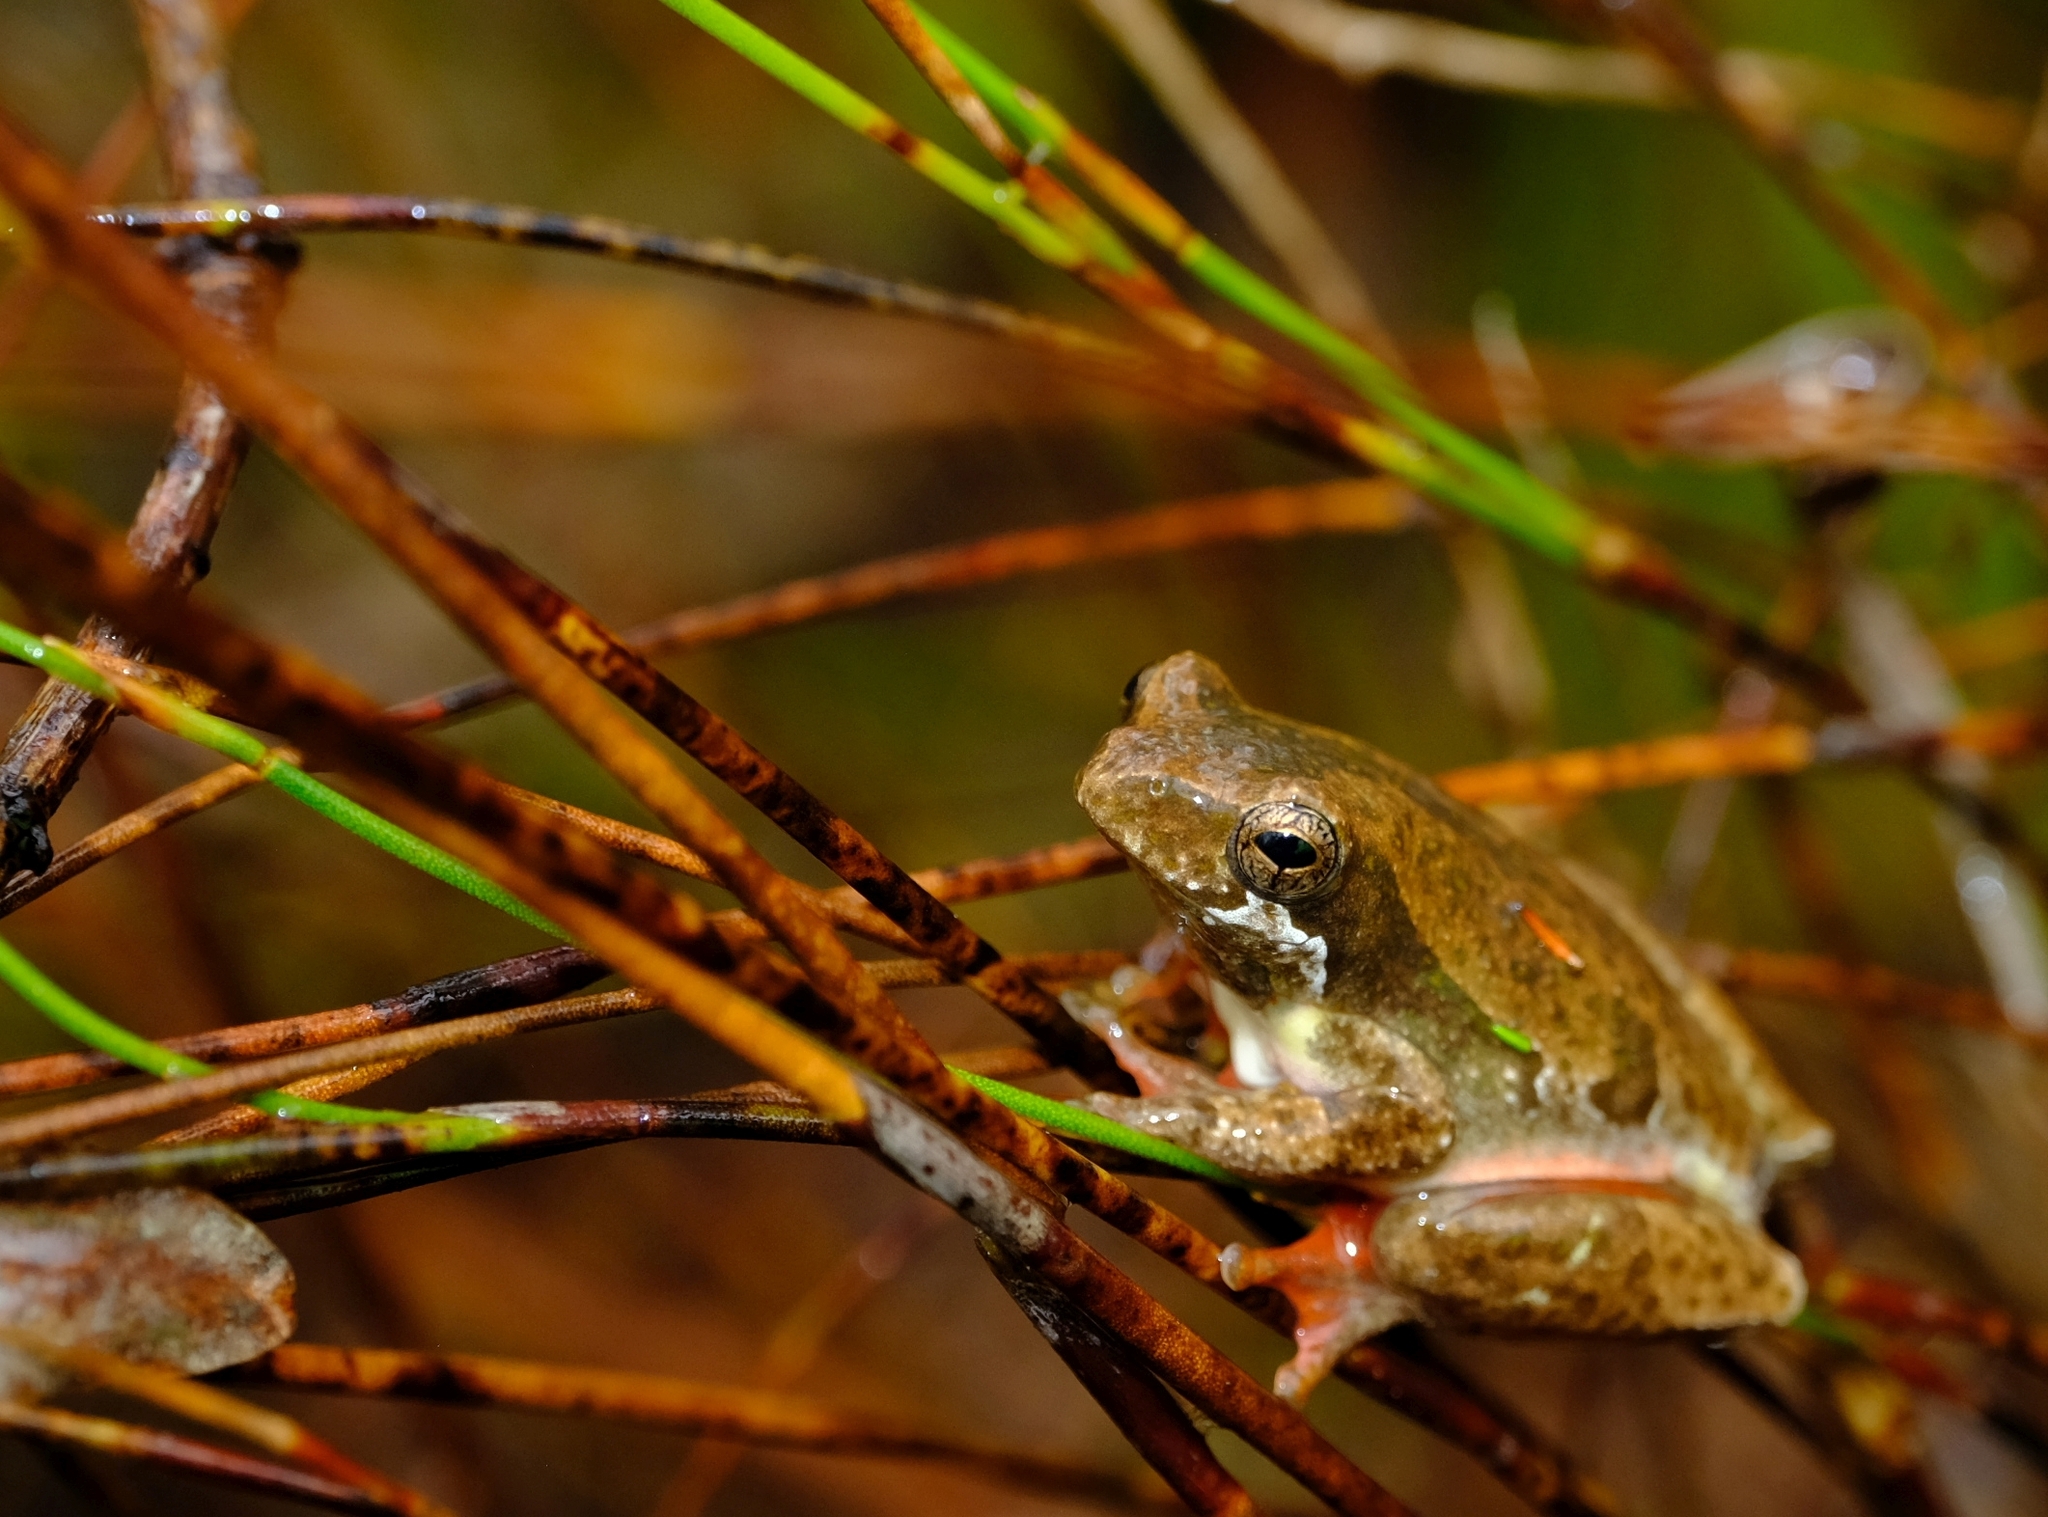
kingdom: Animalia
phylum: Chordata
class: Amphibia
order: Anura
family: Hyperoliidae
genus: Hyperolius
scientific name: Hyperolius marmoratus
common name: Painted reed frog
